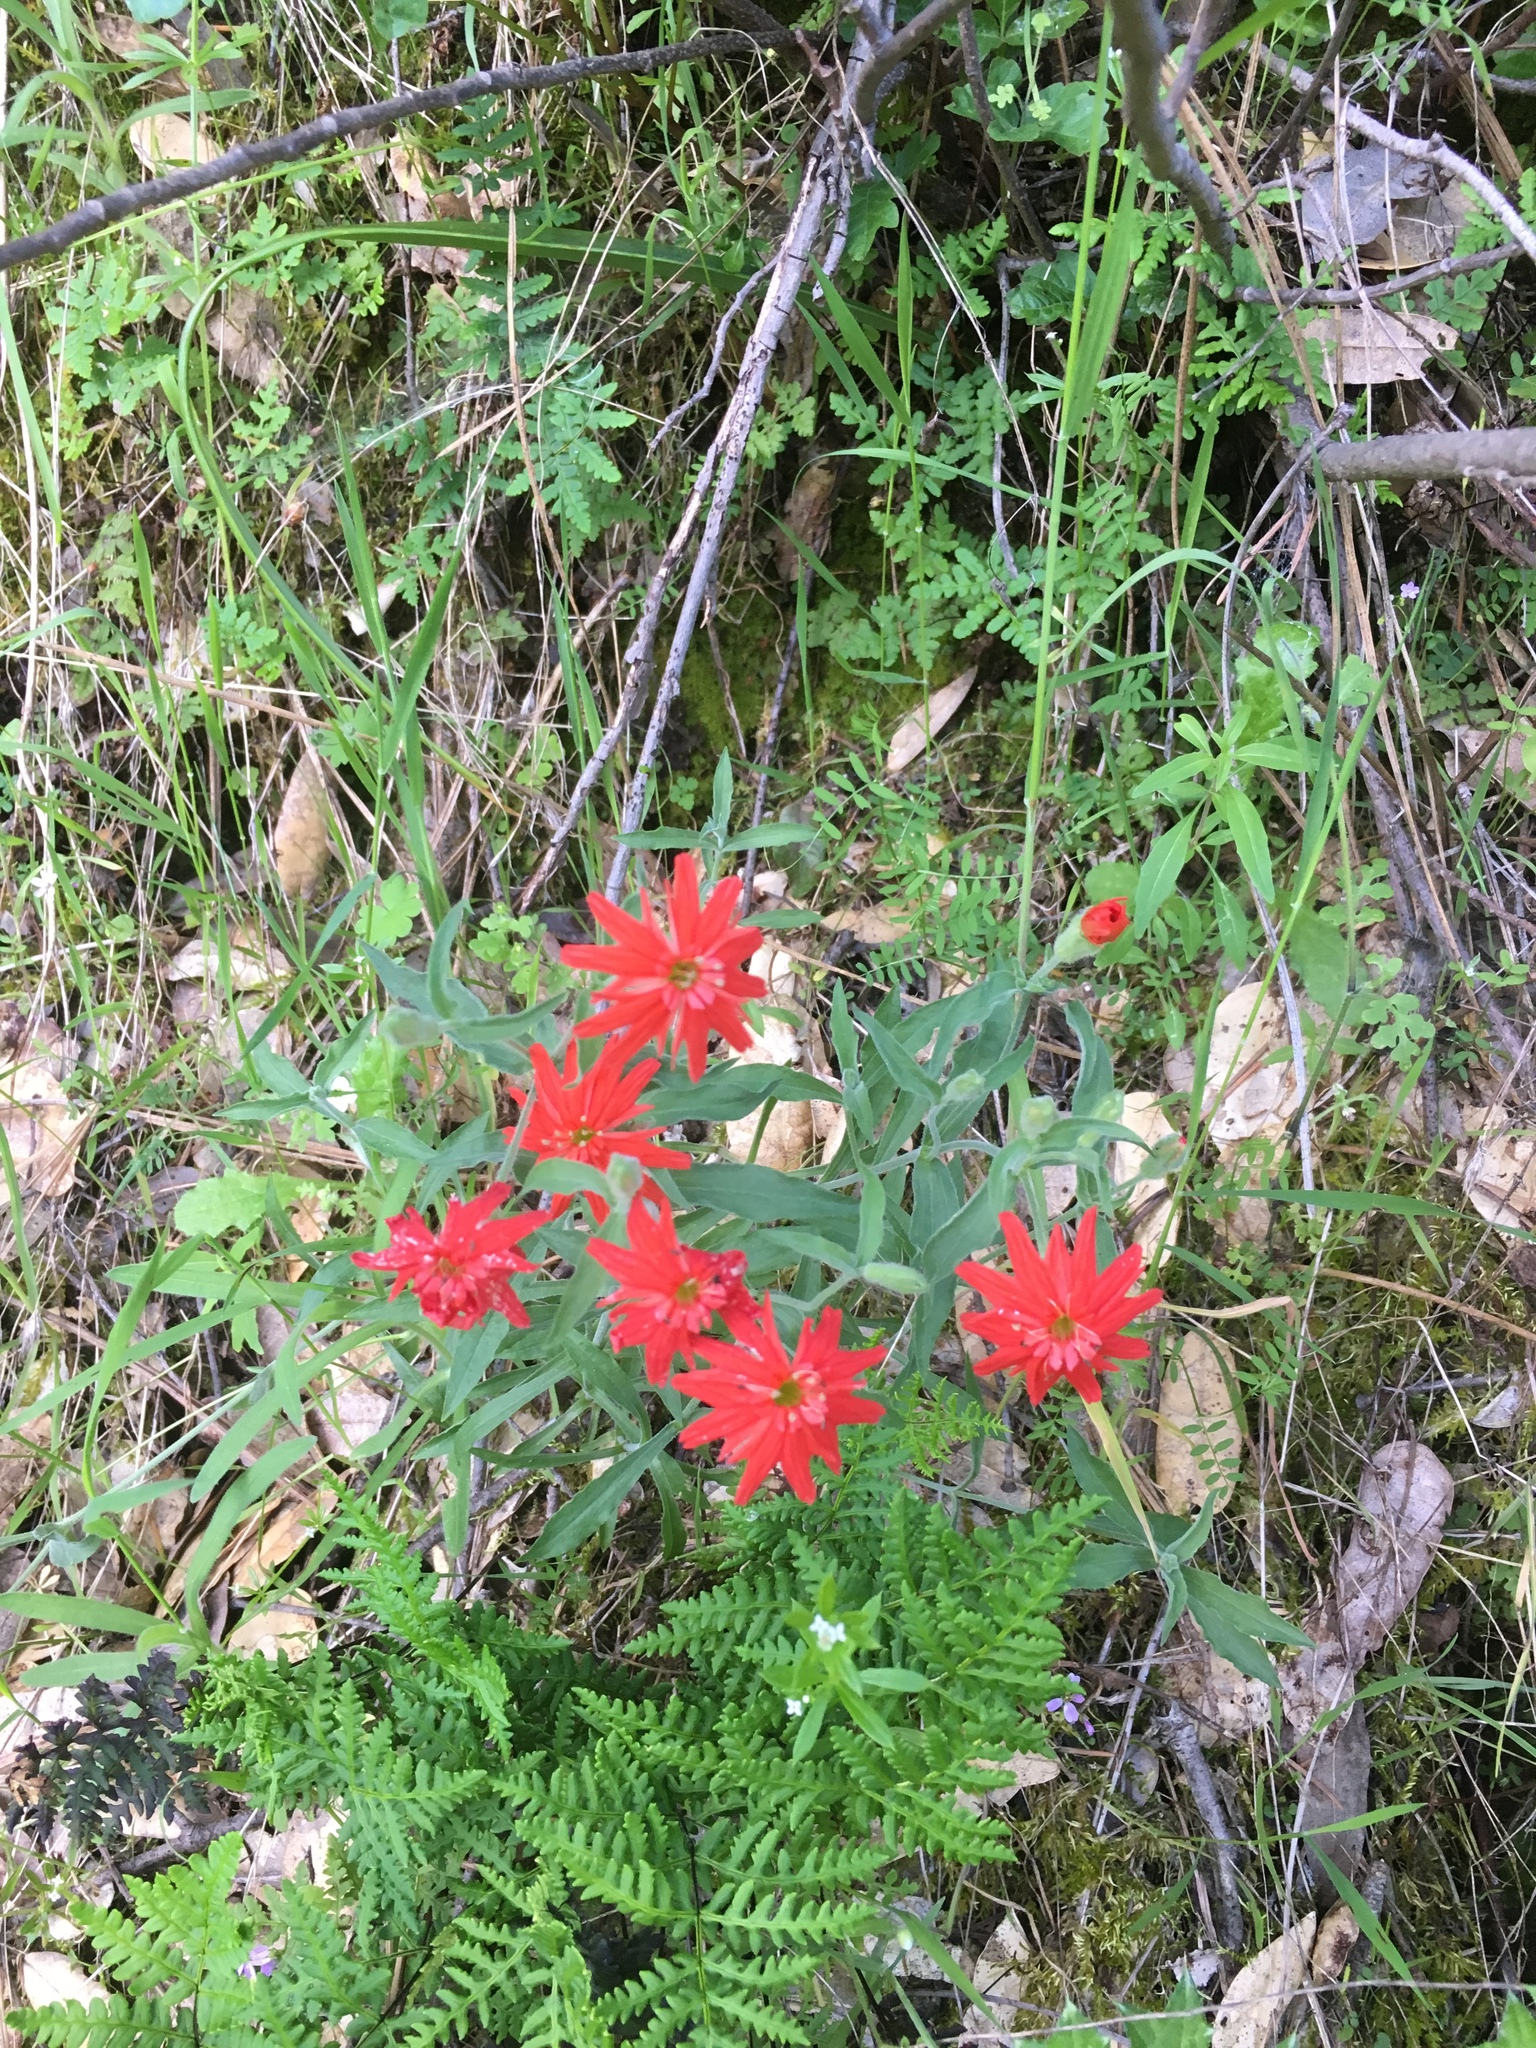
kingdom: Plantae
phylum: Tracheophyta
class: Magnoliopsida
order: Caryophyllales
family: Caryophyllaceae
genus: Silene
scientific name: Silene laciniata
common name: Indian-pink
